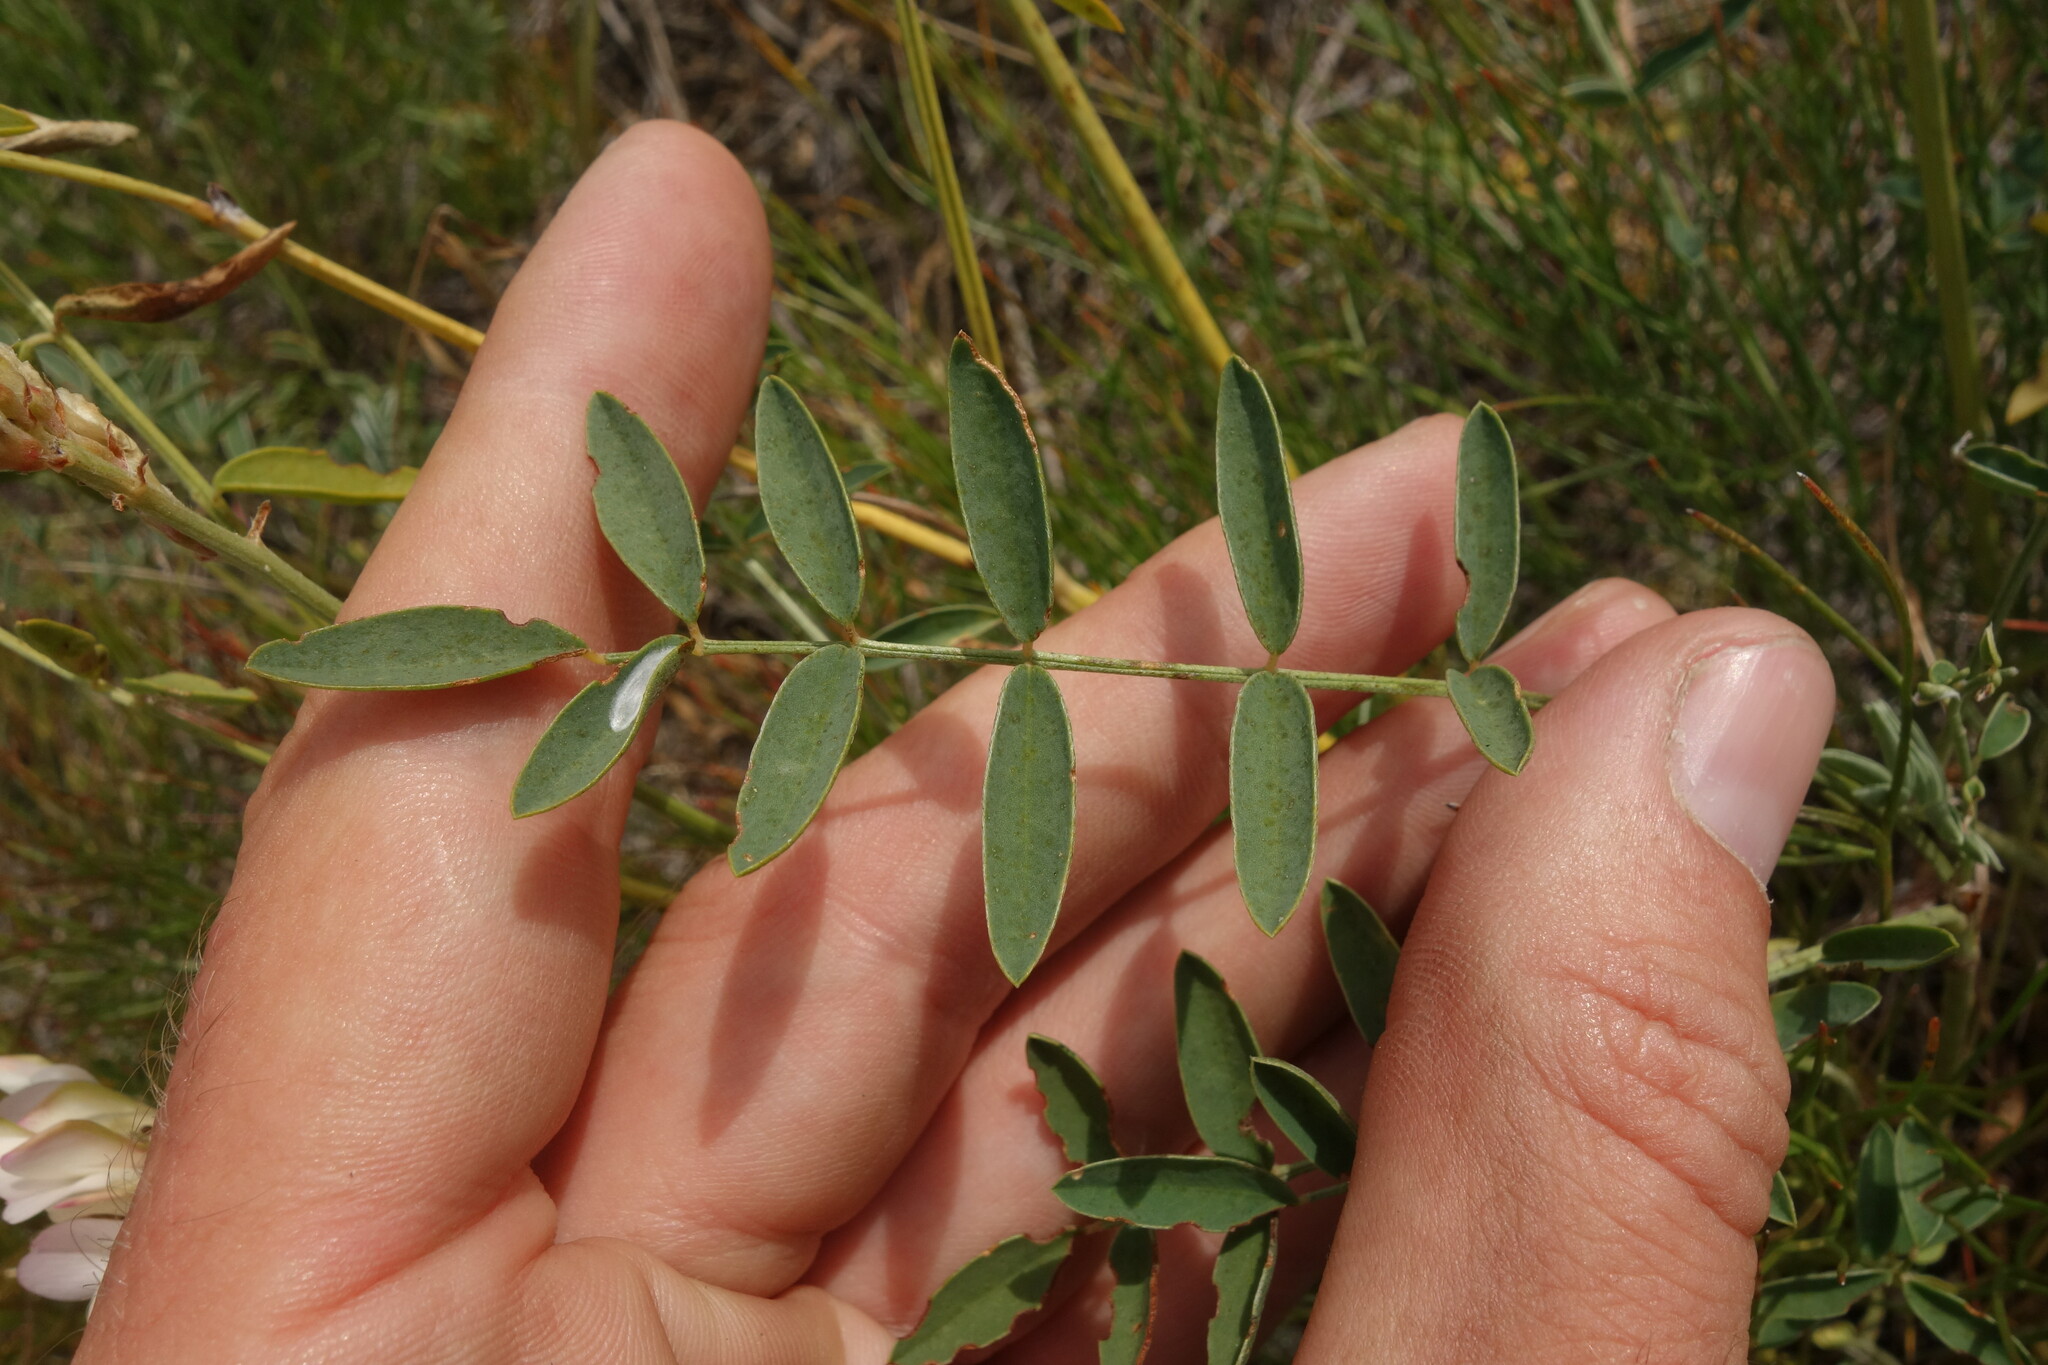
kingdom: Plantae
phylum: Tracheophyta
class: Magnoliopsida
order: Fabales
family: Fabaceae
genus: Hedysarum
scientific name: Hedysarum dahuricum
